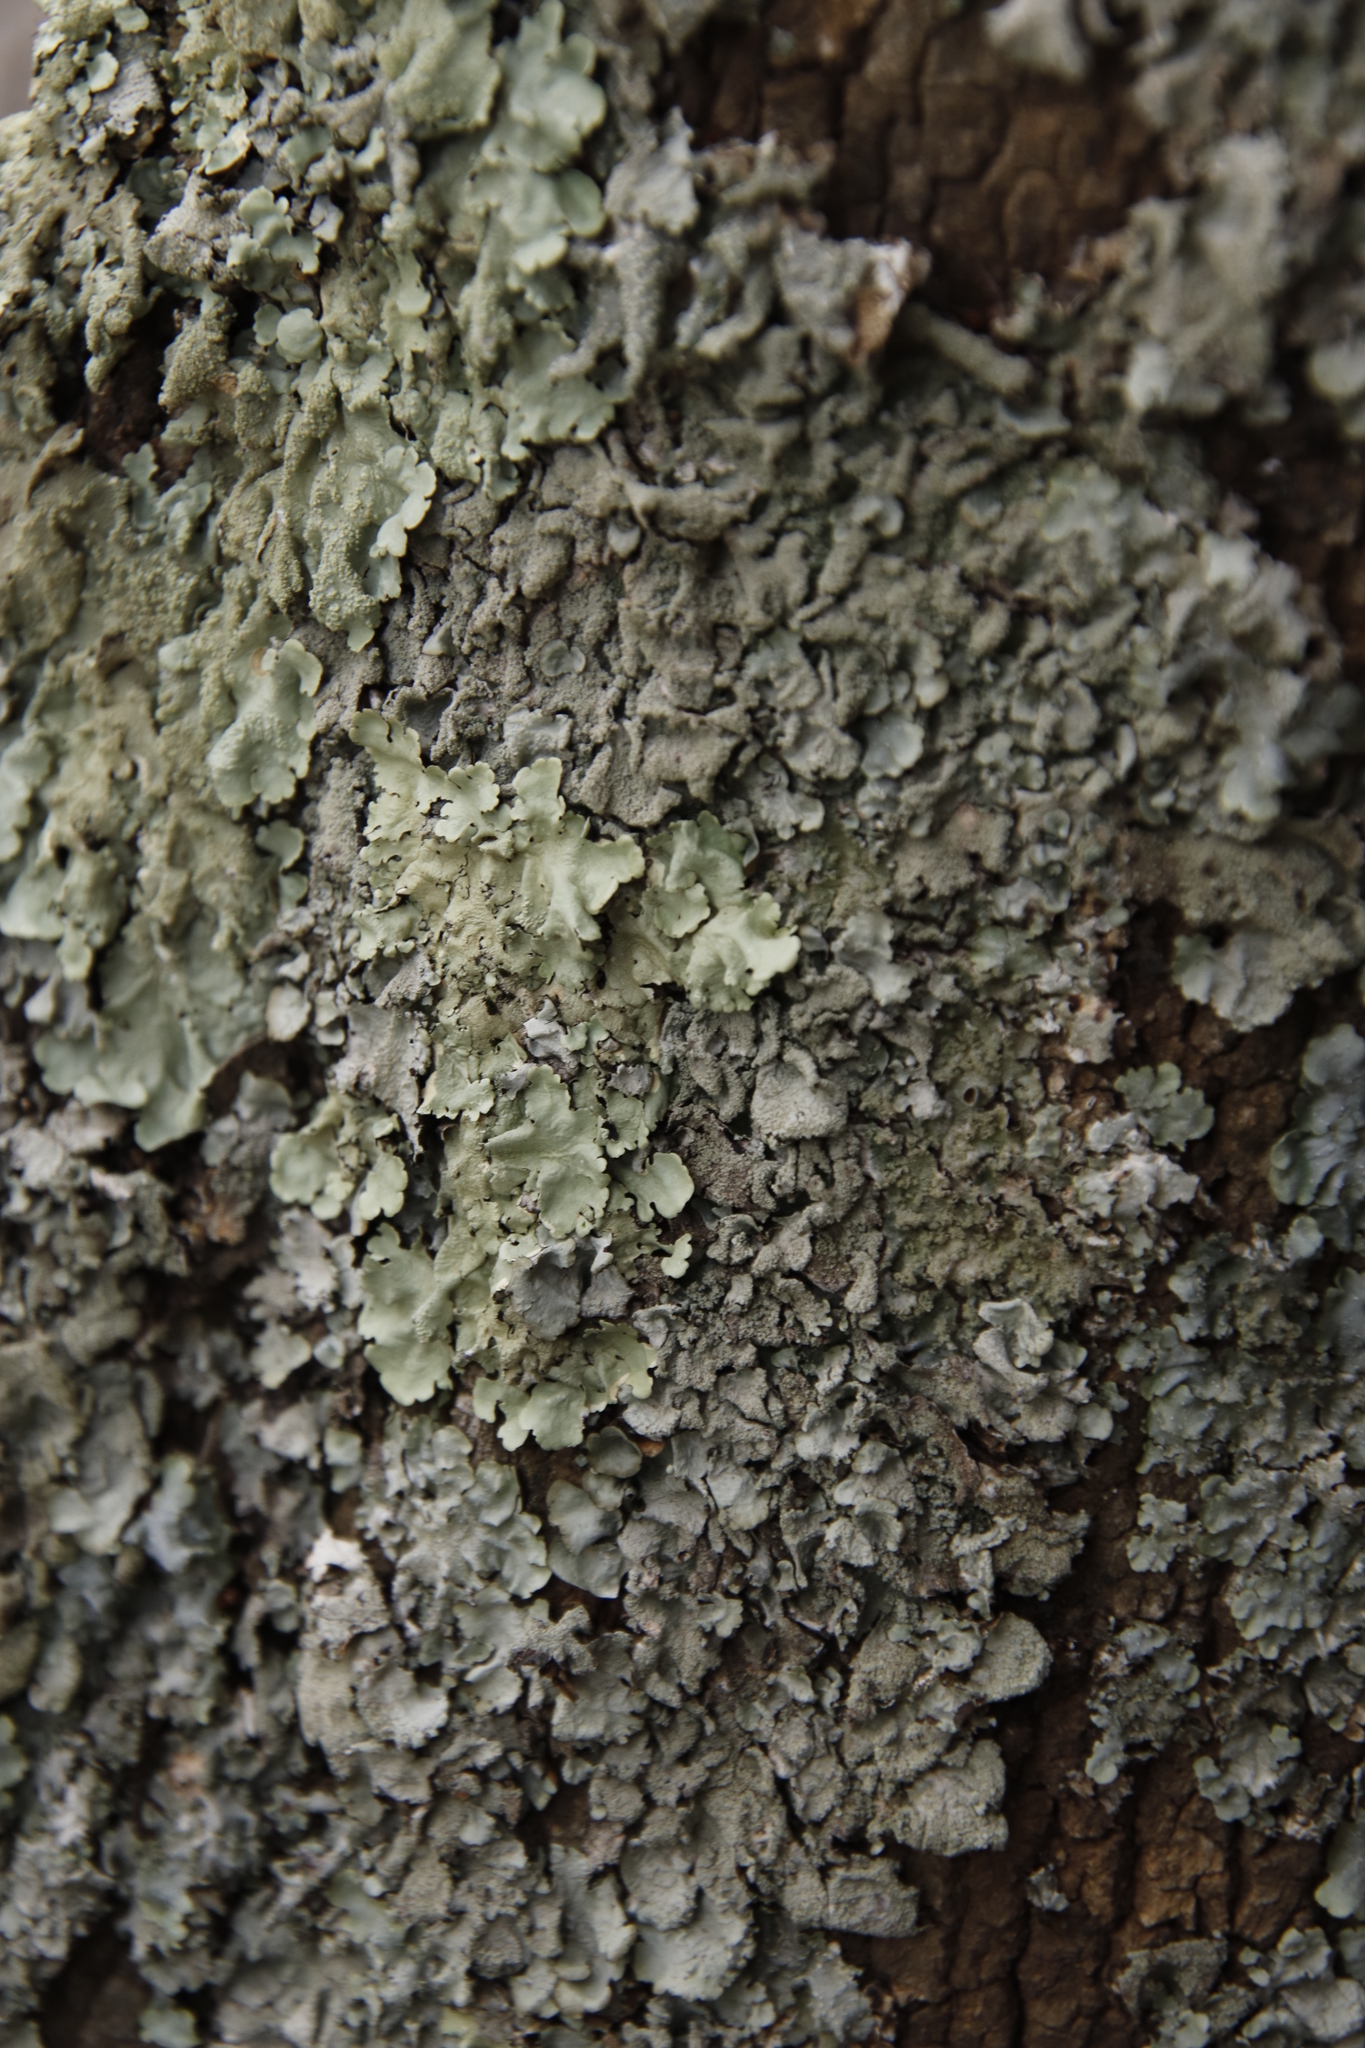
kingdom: Fungi
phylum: Ascomycota
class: Lecanoromycetes
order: Lecanorales
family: Parmeliaceae
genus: Flavoparmelia
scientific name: Flavoparmelia caperata
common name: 40-mile per hour lichen
